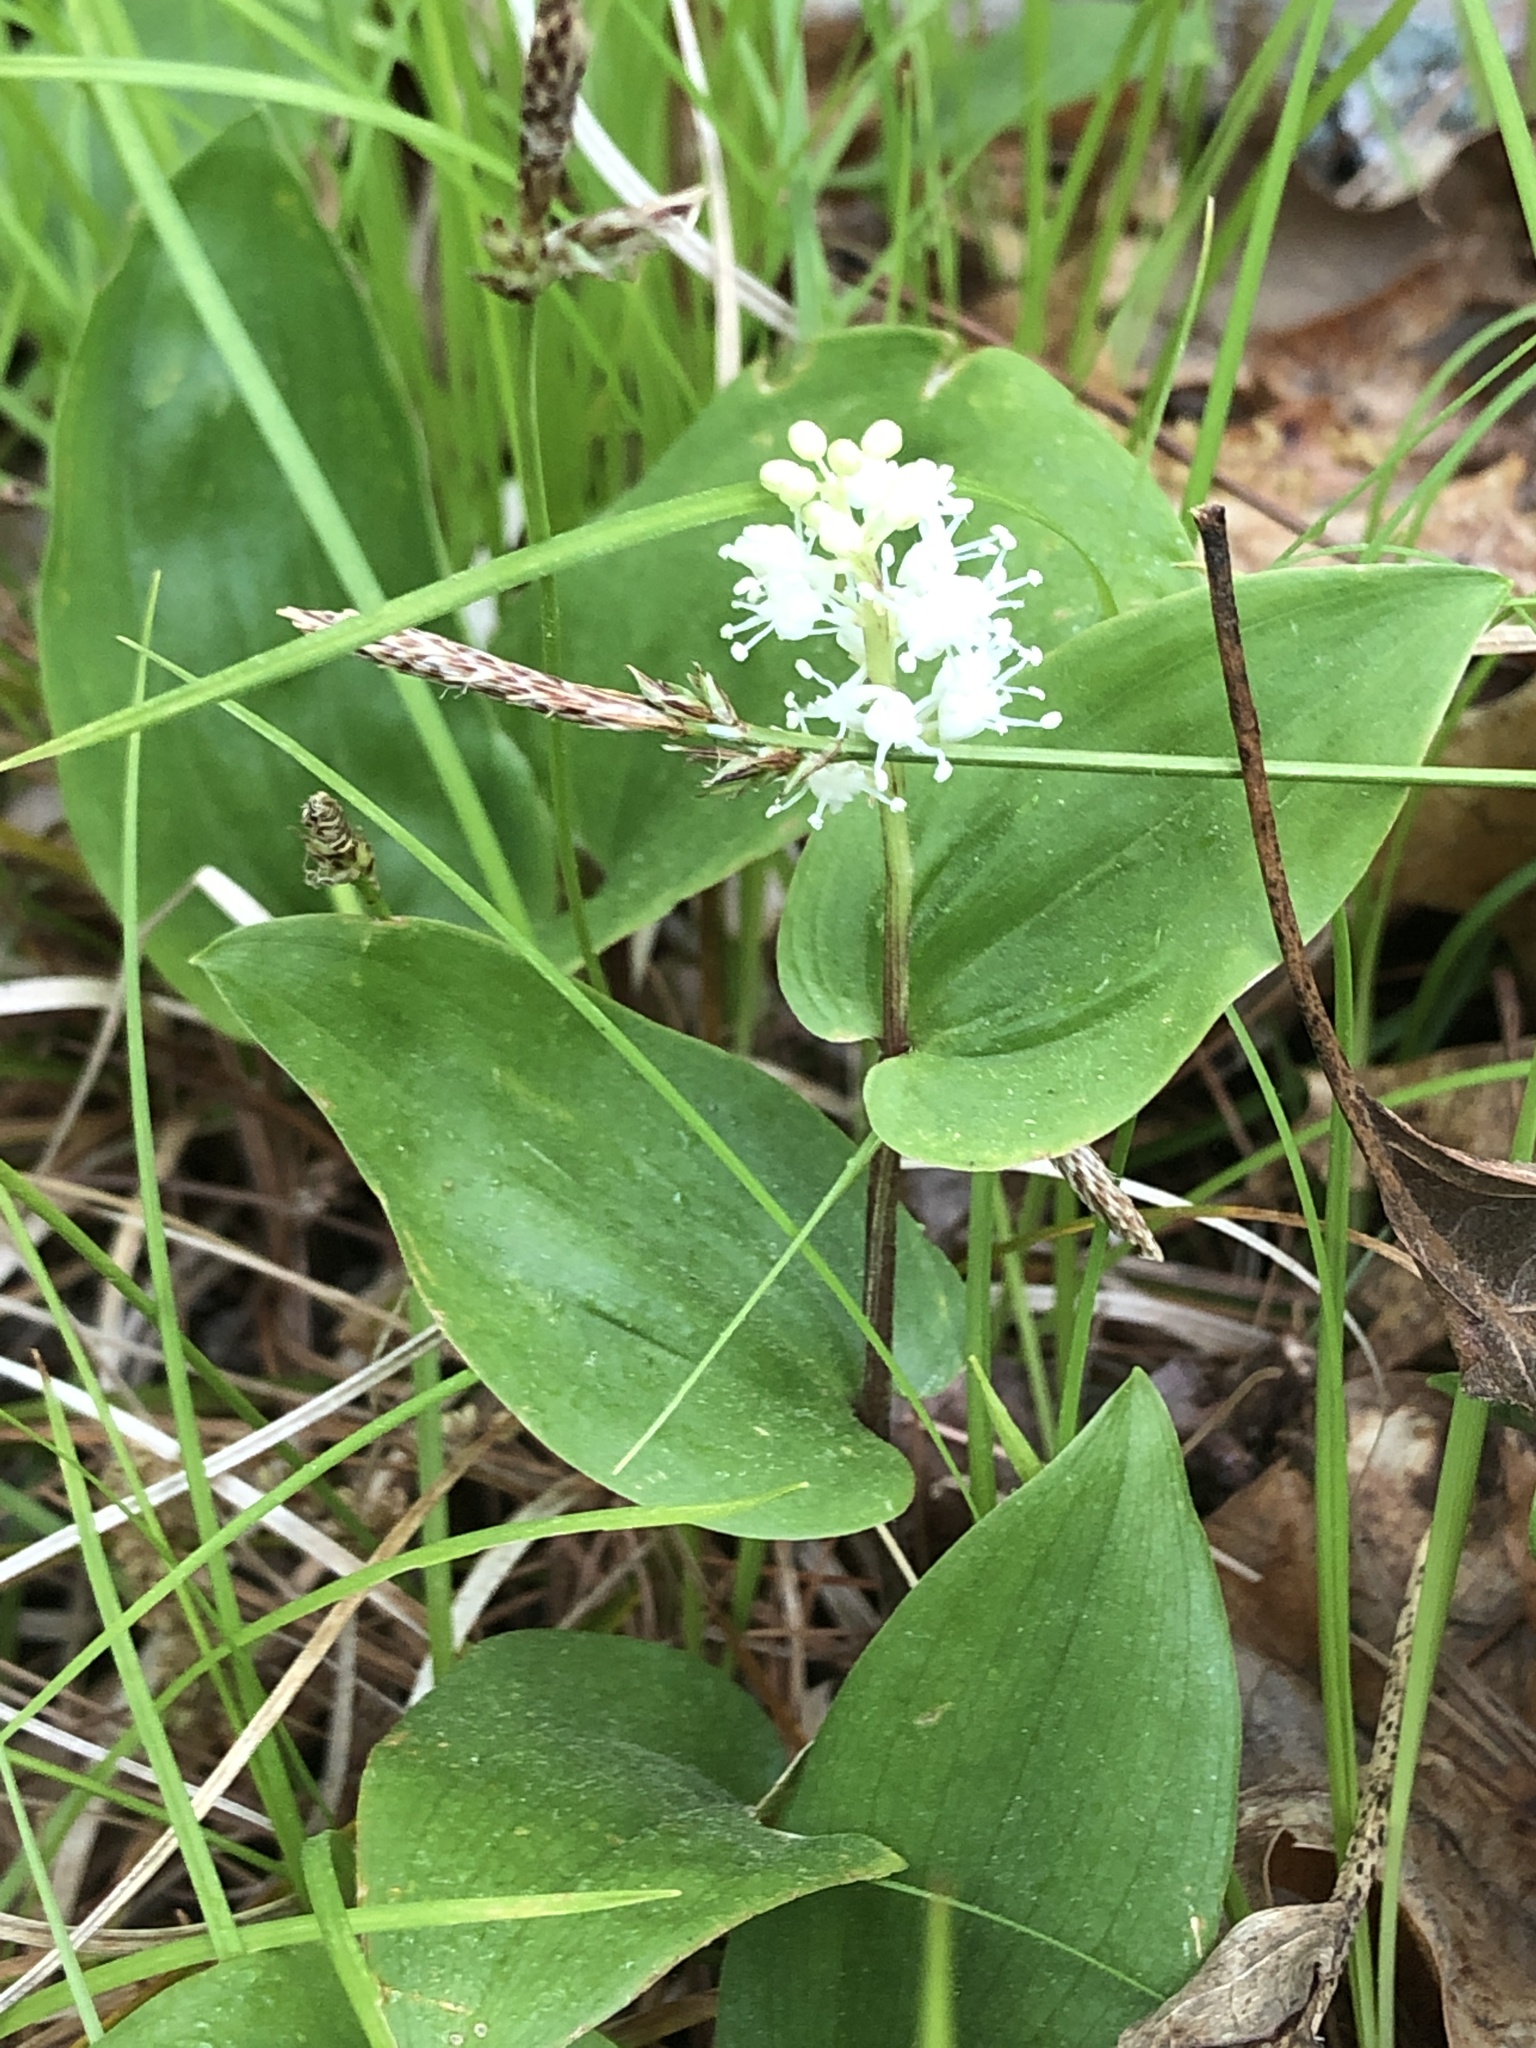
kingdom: Plantae
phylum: Tracheophyta
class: Liliopsida
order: Asparagales
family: Asparagaceae
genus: Maianthemum
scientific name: Maianthemum canadense
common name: False lily-of-the-valley
